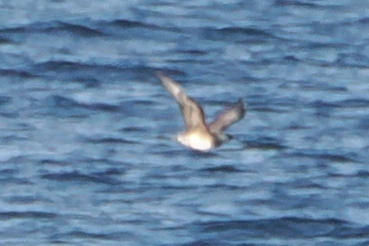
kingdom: Animalia
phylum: Chordata
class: Aves
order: Charadriiformes
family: Stercorariidae
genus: Stercorarius
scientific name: Stercorarius pomarinus
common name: Pomarine jaeger
